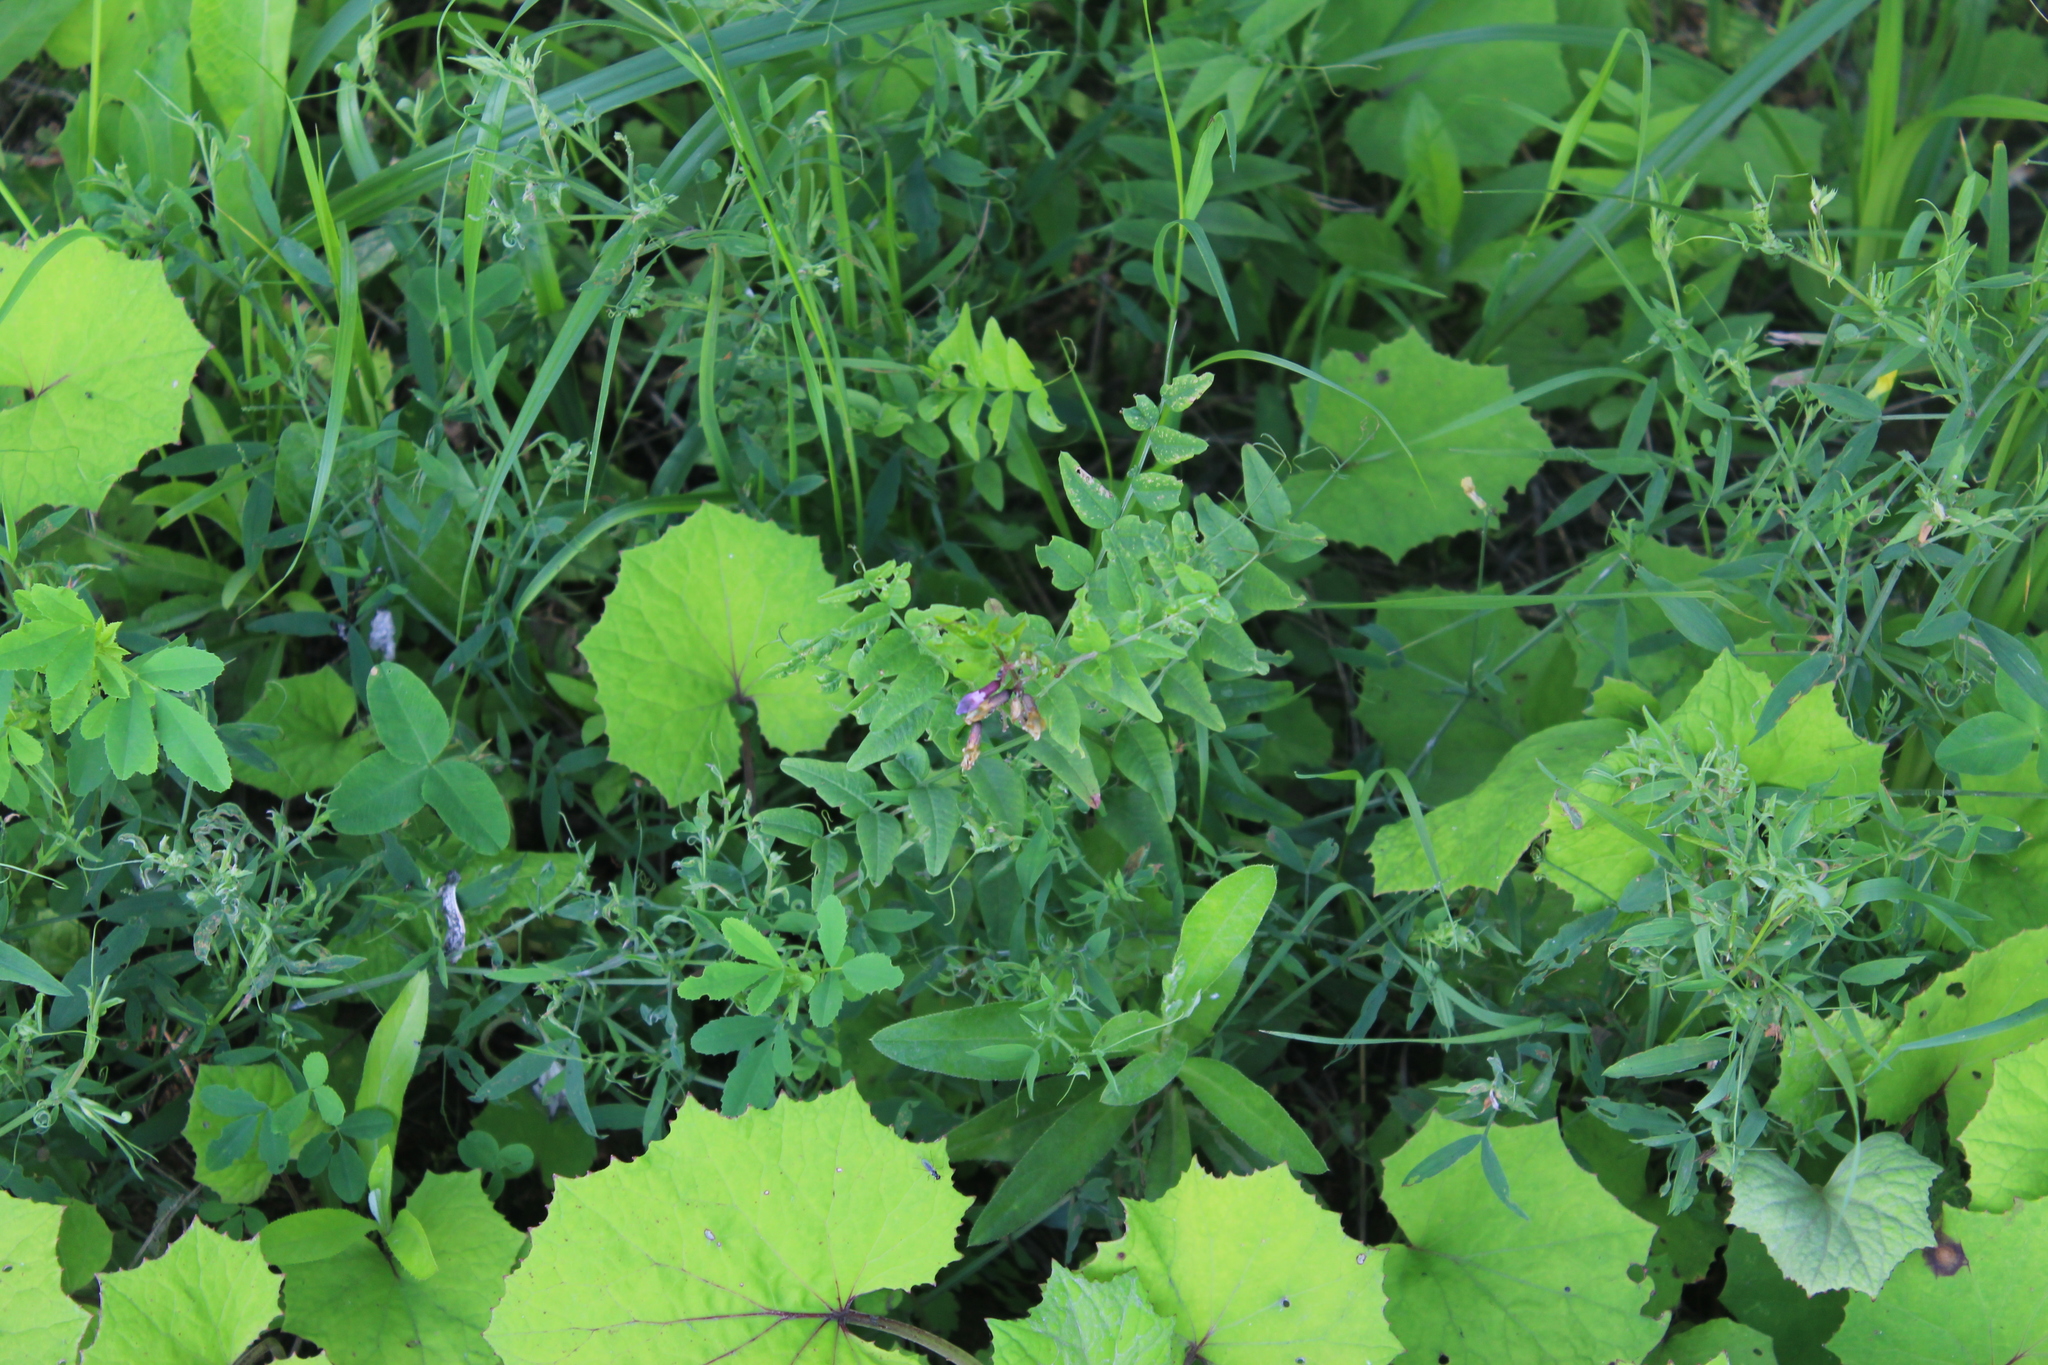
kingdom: Plantae
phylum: Tracheophyta
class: Magnoliopsida
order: Fabales
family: Fabaceae
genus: Vicia
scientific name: Vicia sepium
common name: Bush vetch
